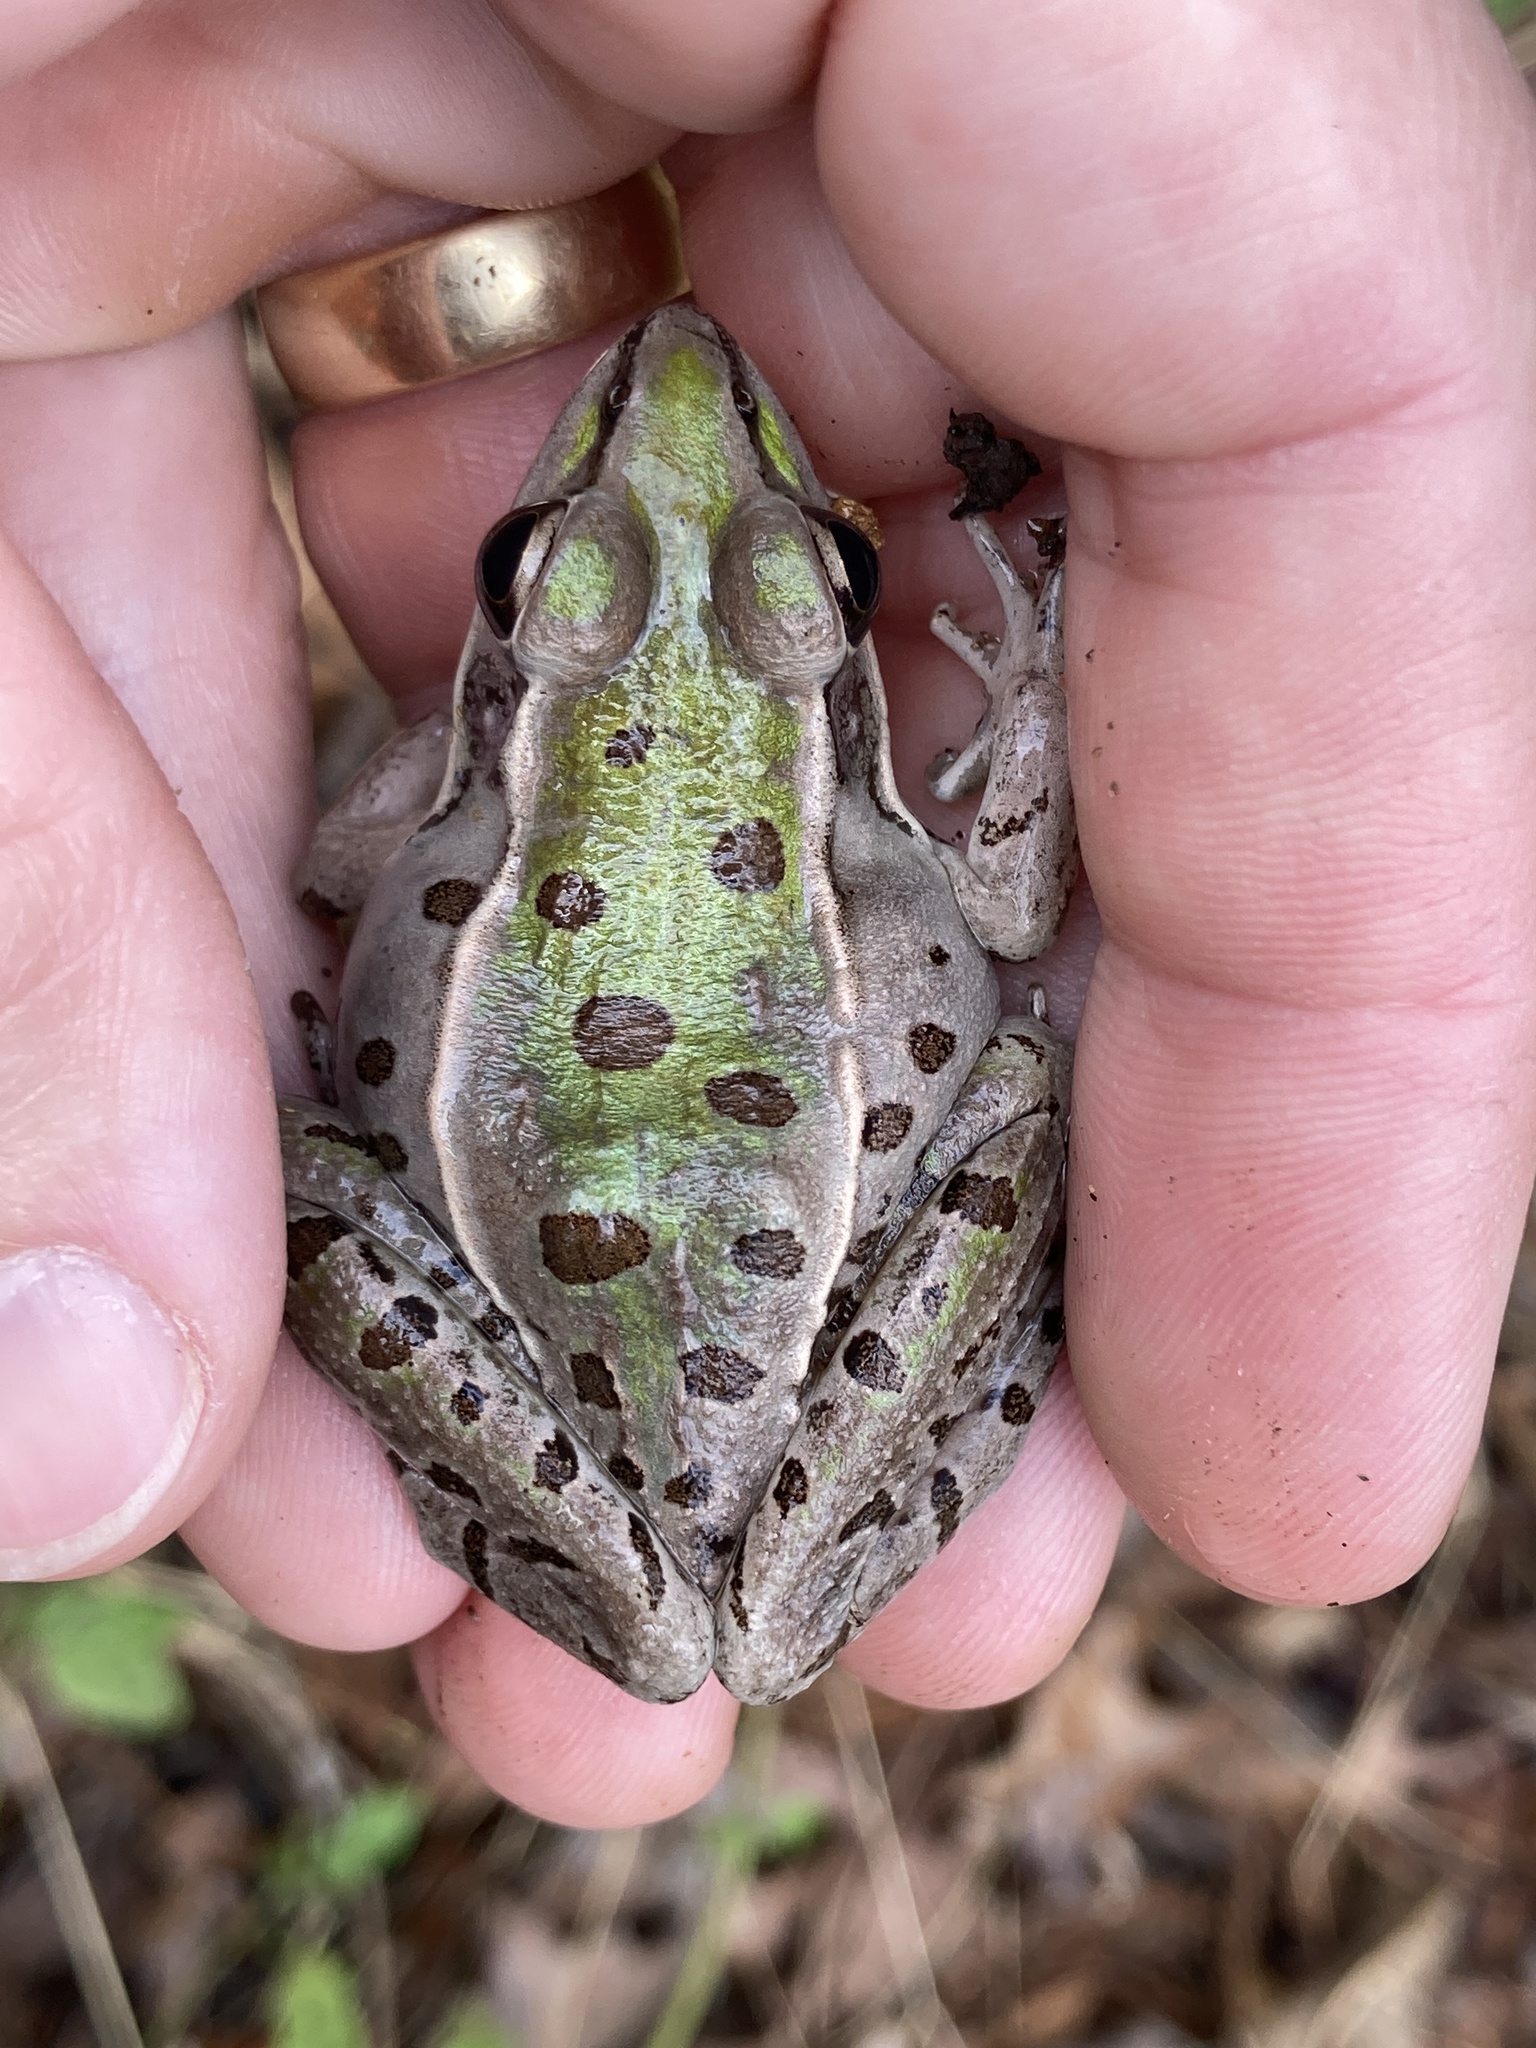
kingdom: Animalia
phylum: Chordata
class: Amphibia
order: Anura
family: Ranidae
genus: Lithobates
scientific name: Lithobates sphenocephalus
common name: Southern leopard frog
